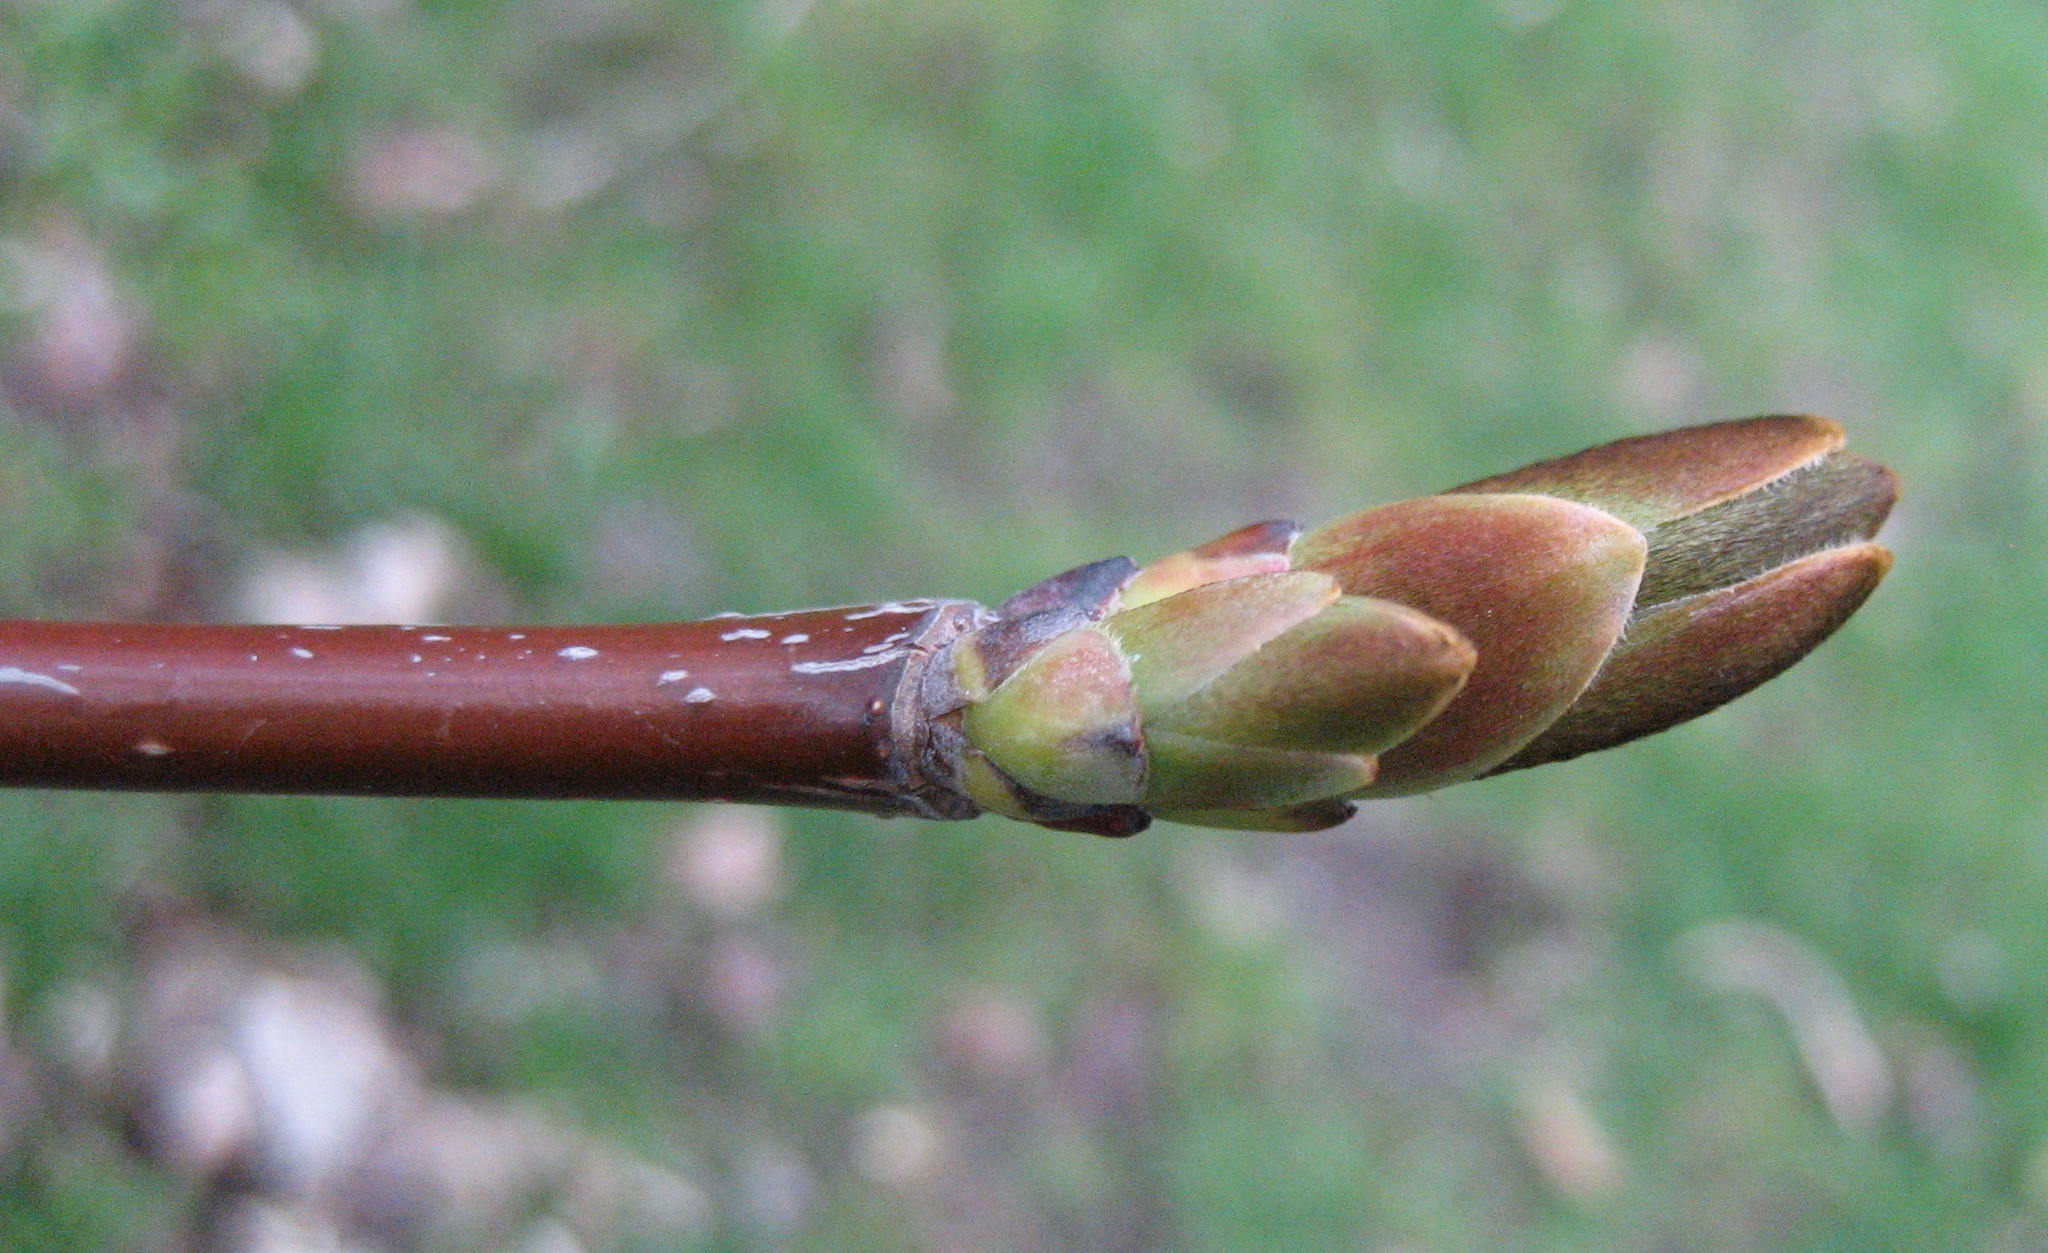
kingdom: Plantae
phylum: Tracheophyta
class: Magnoliopsida
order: Sapindales
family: Sapindaceae
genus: Acer
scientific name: Acer platanoides
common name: Norway maple
